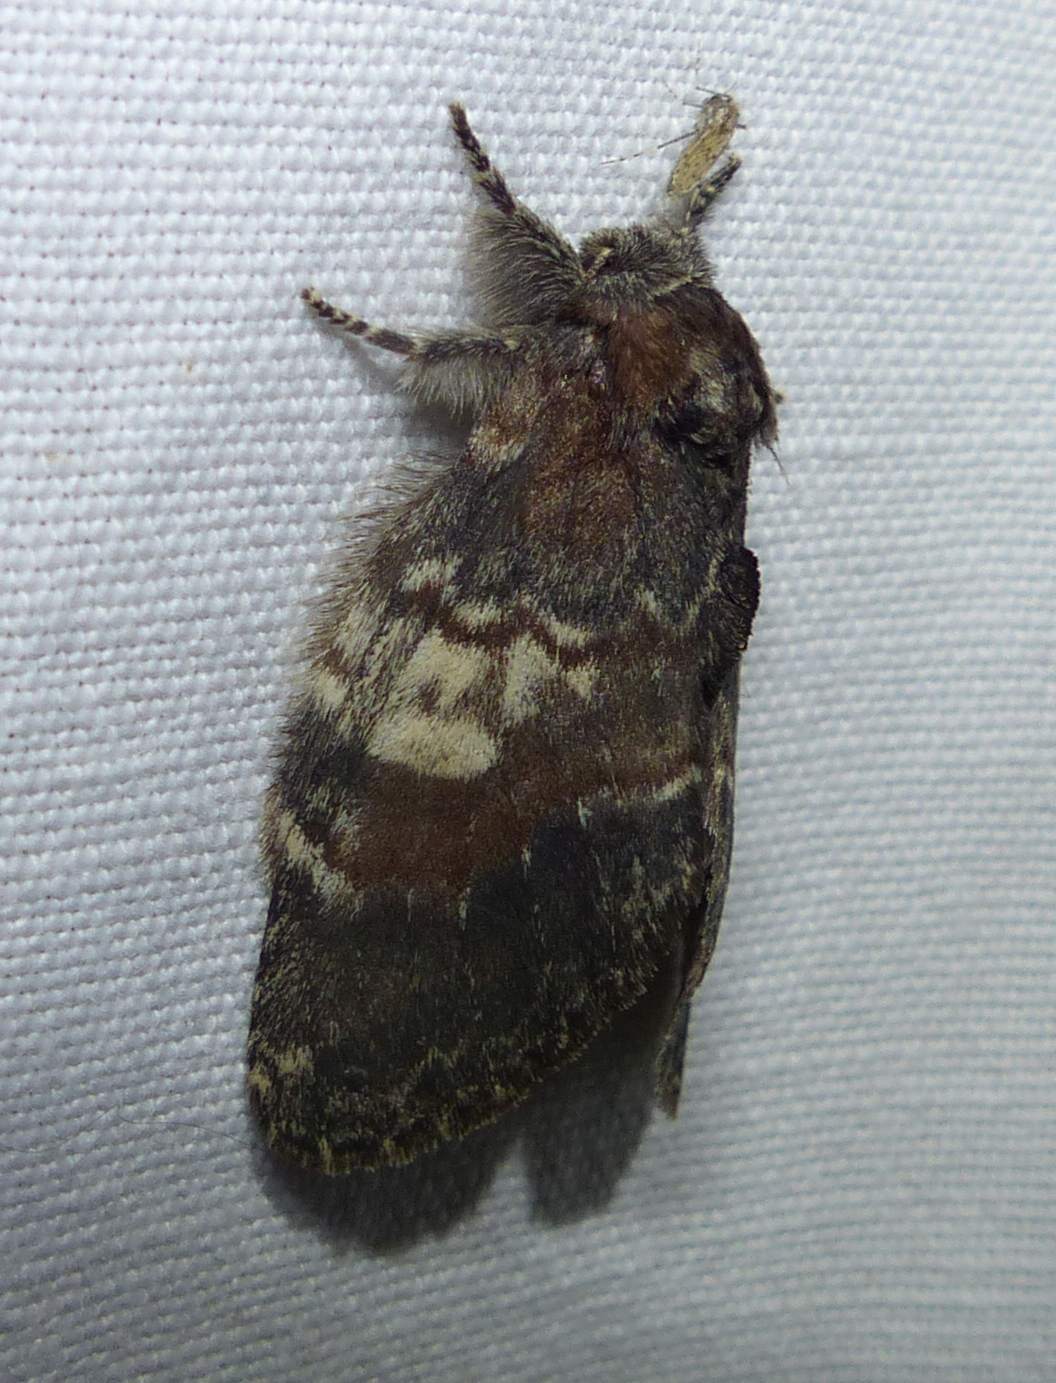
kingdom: Animalia
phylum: Arthropoda
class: Insecta
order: Lepidoptera
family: Notodontidae
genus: Peridea
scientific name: Peridea ferruginea
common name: Chocolate prominent
